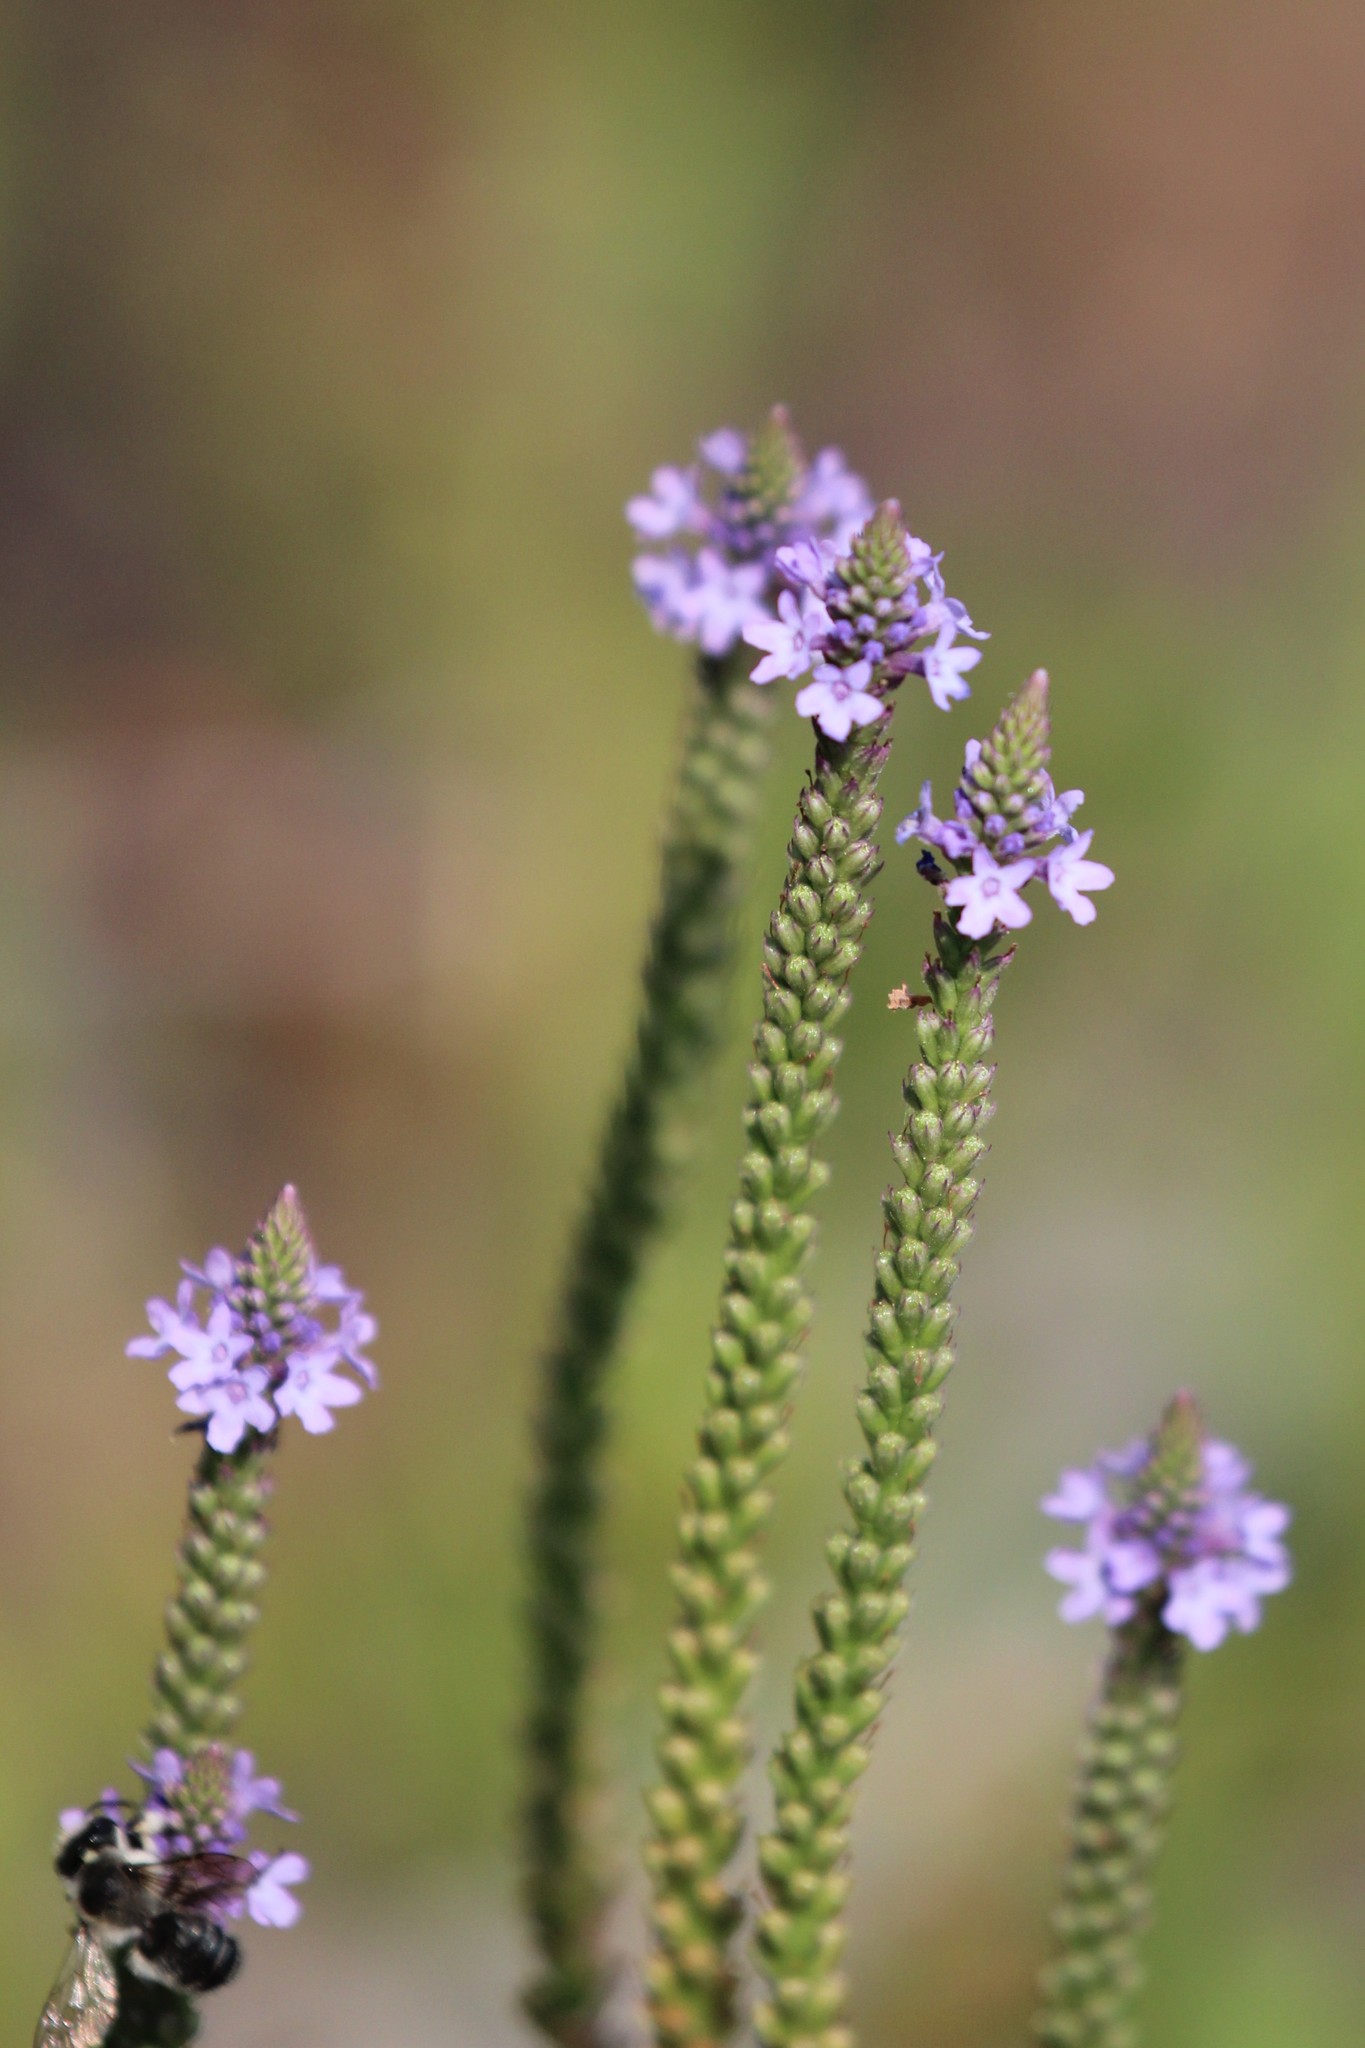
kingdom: Plantae
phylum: Tracheophyta
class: Magnoliopsida
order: Lamiales
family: Verbenaceae
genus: Verbena
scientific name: Verbena hastata
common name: American blue vervain
